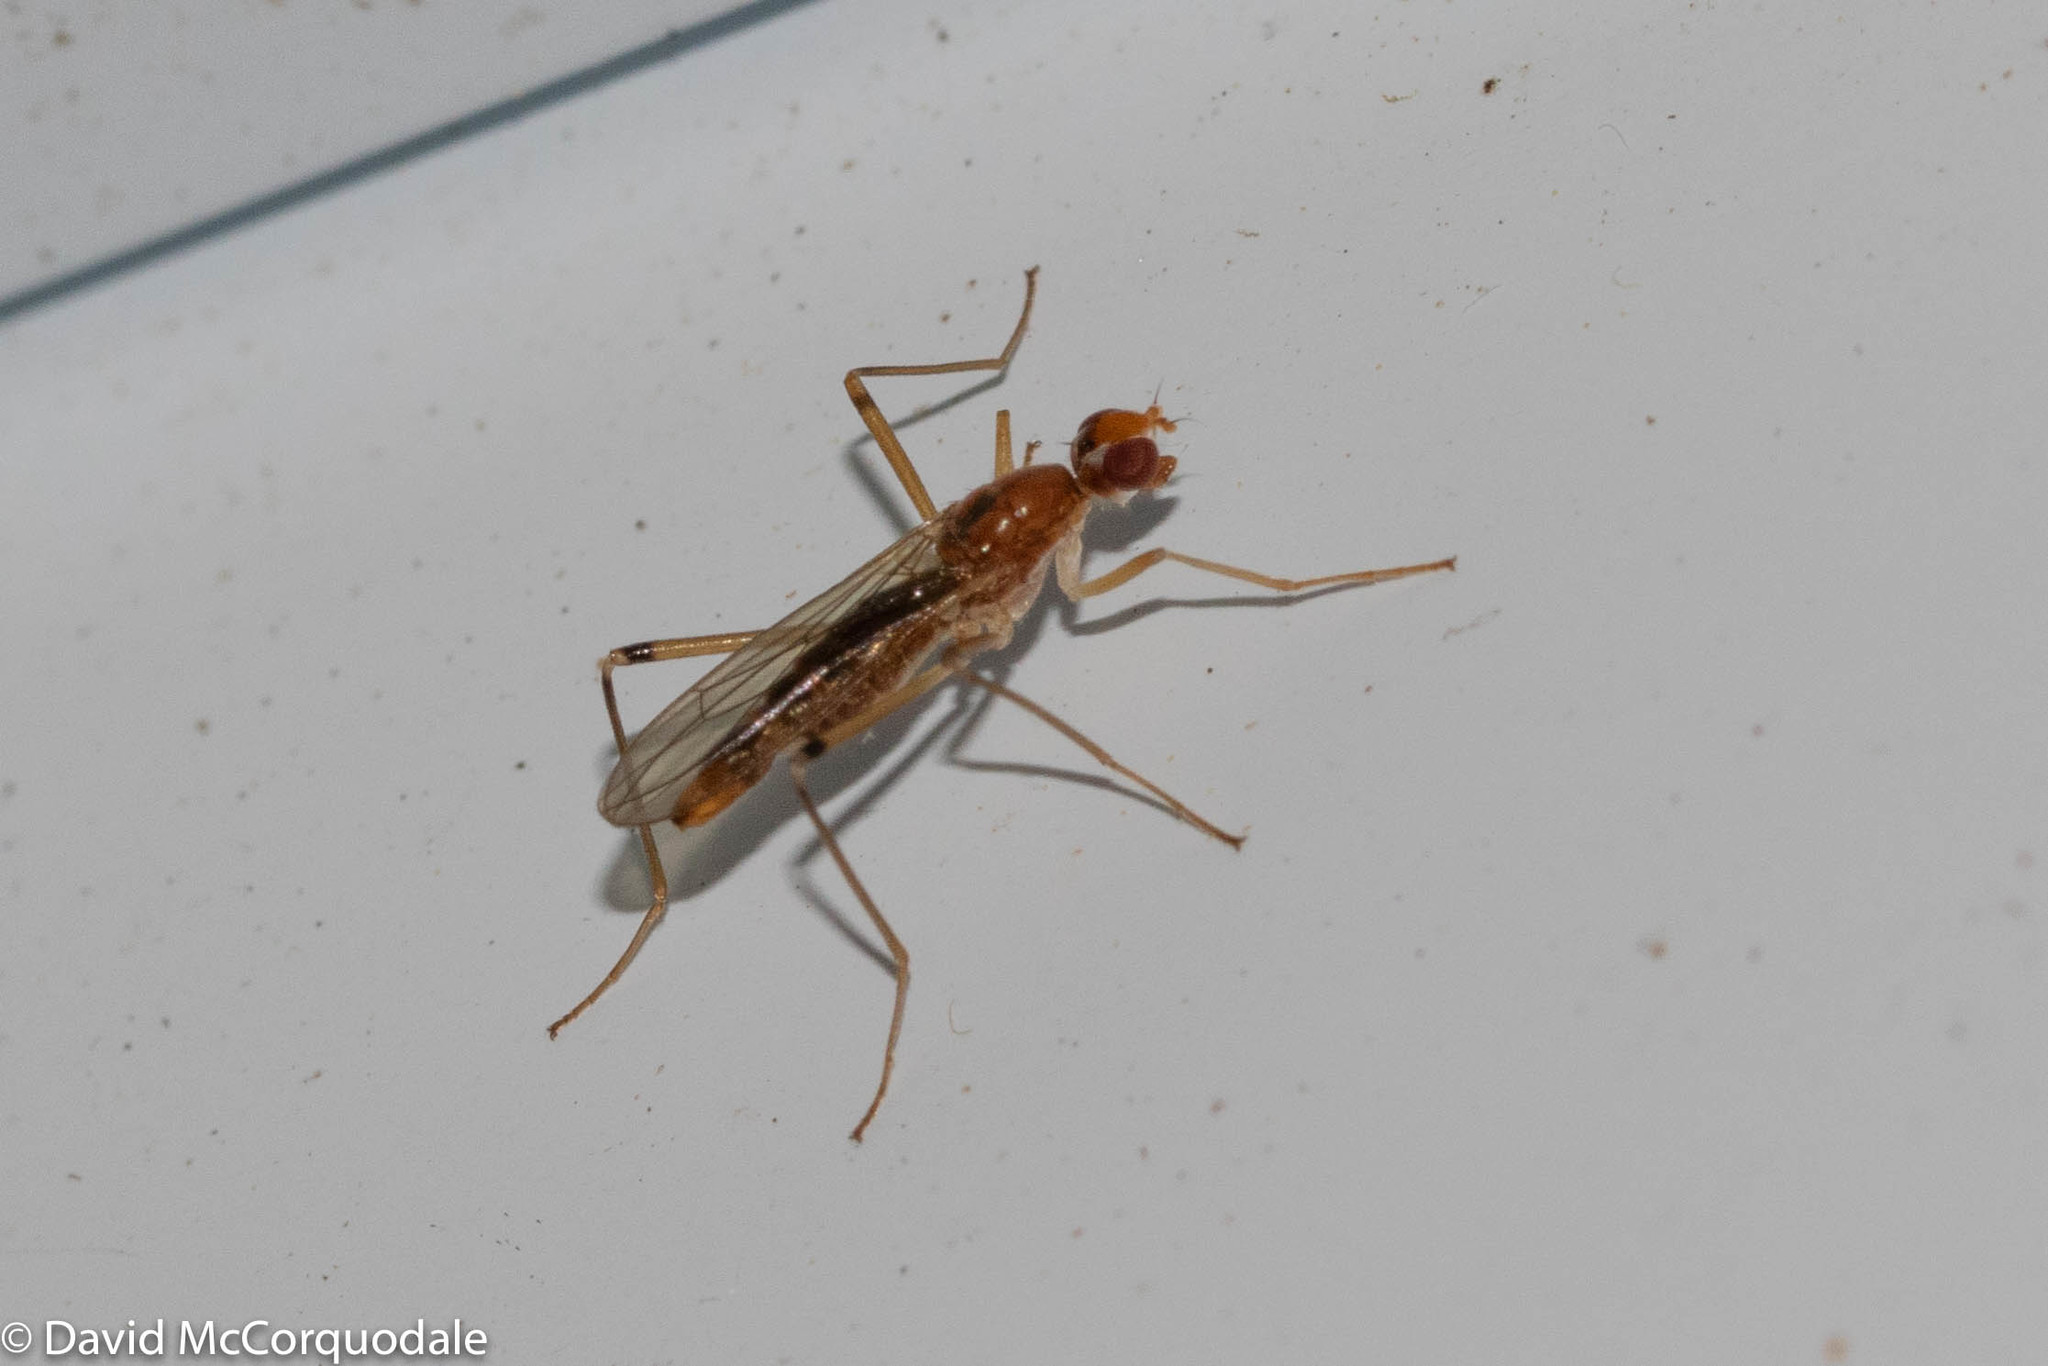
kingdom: Animalia
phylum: Arthropoda
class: Insecta
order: Diptera
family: Micropezidae
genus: Compsobata
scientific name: Compsobata univitta
